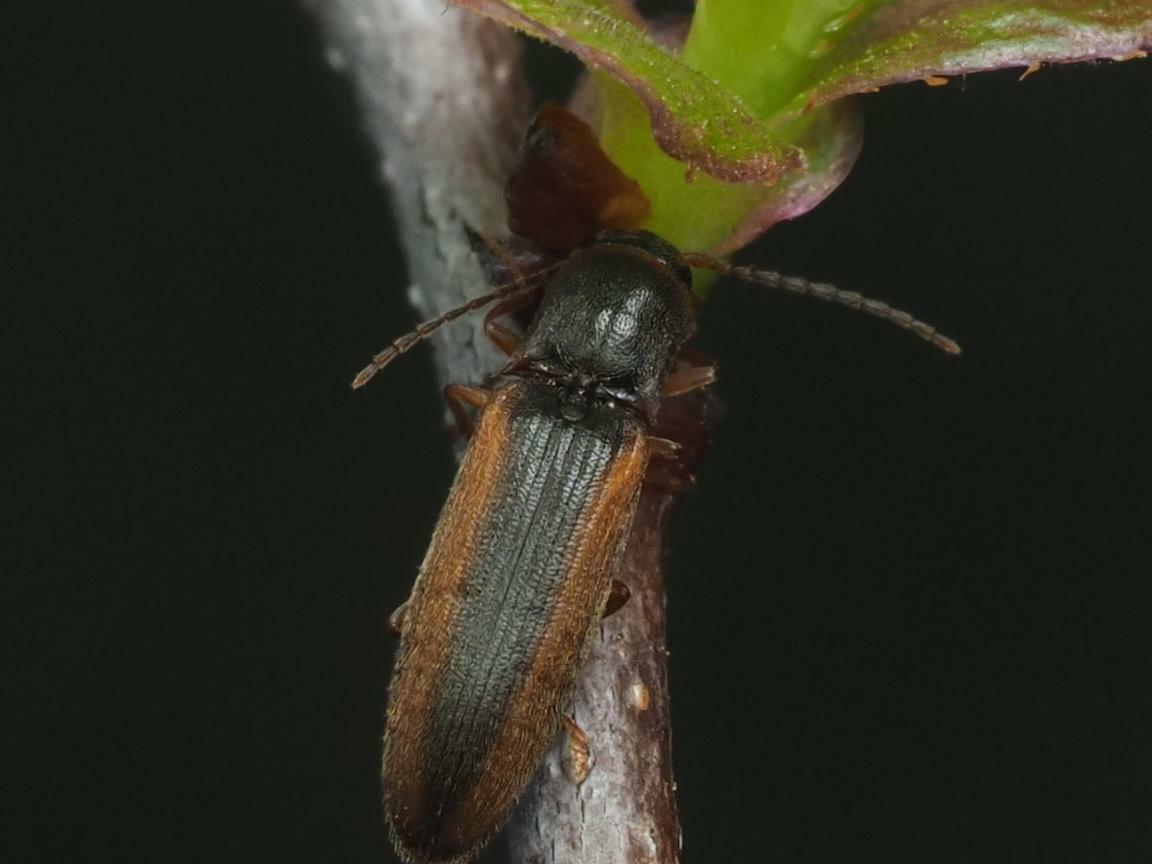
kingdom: Animalia
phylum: Arthropoda
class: Insecta
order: Coleoptera
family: Elateridae
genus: Dalopius
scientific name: Dalopius marginatus
